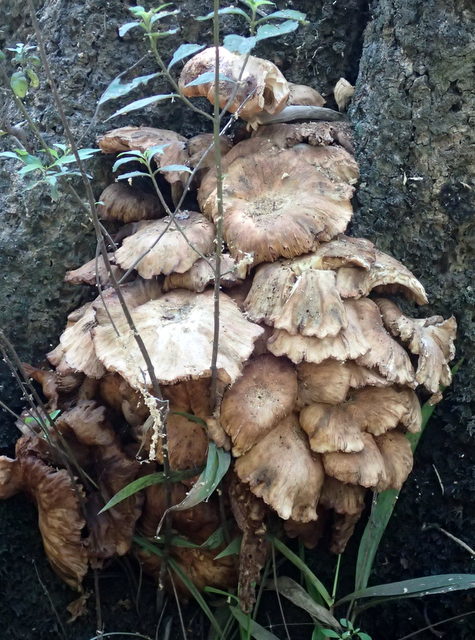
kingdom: Fungi
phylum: Basidiomycota
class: Agaricomycetes
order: Agaricales
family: Physalacriaceae
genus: Desarmillaria
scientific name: Desarmillaria caespitosa
